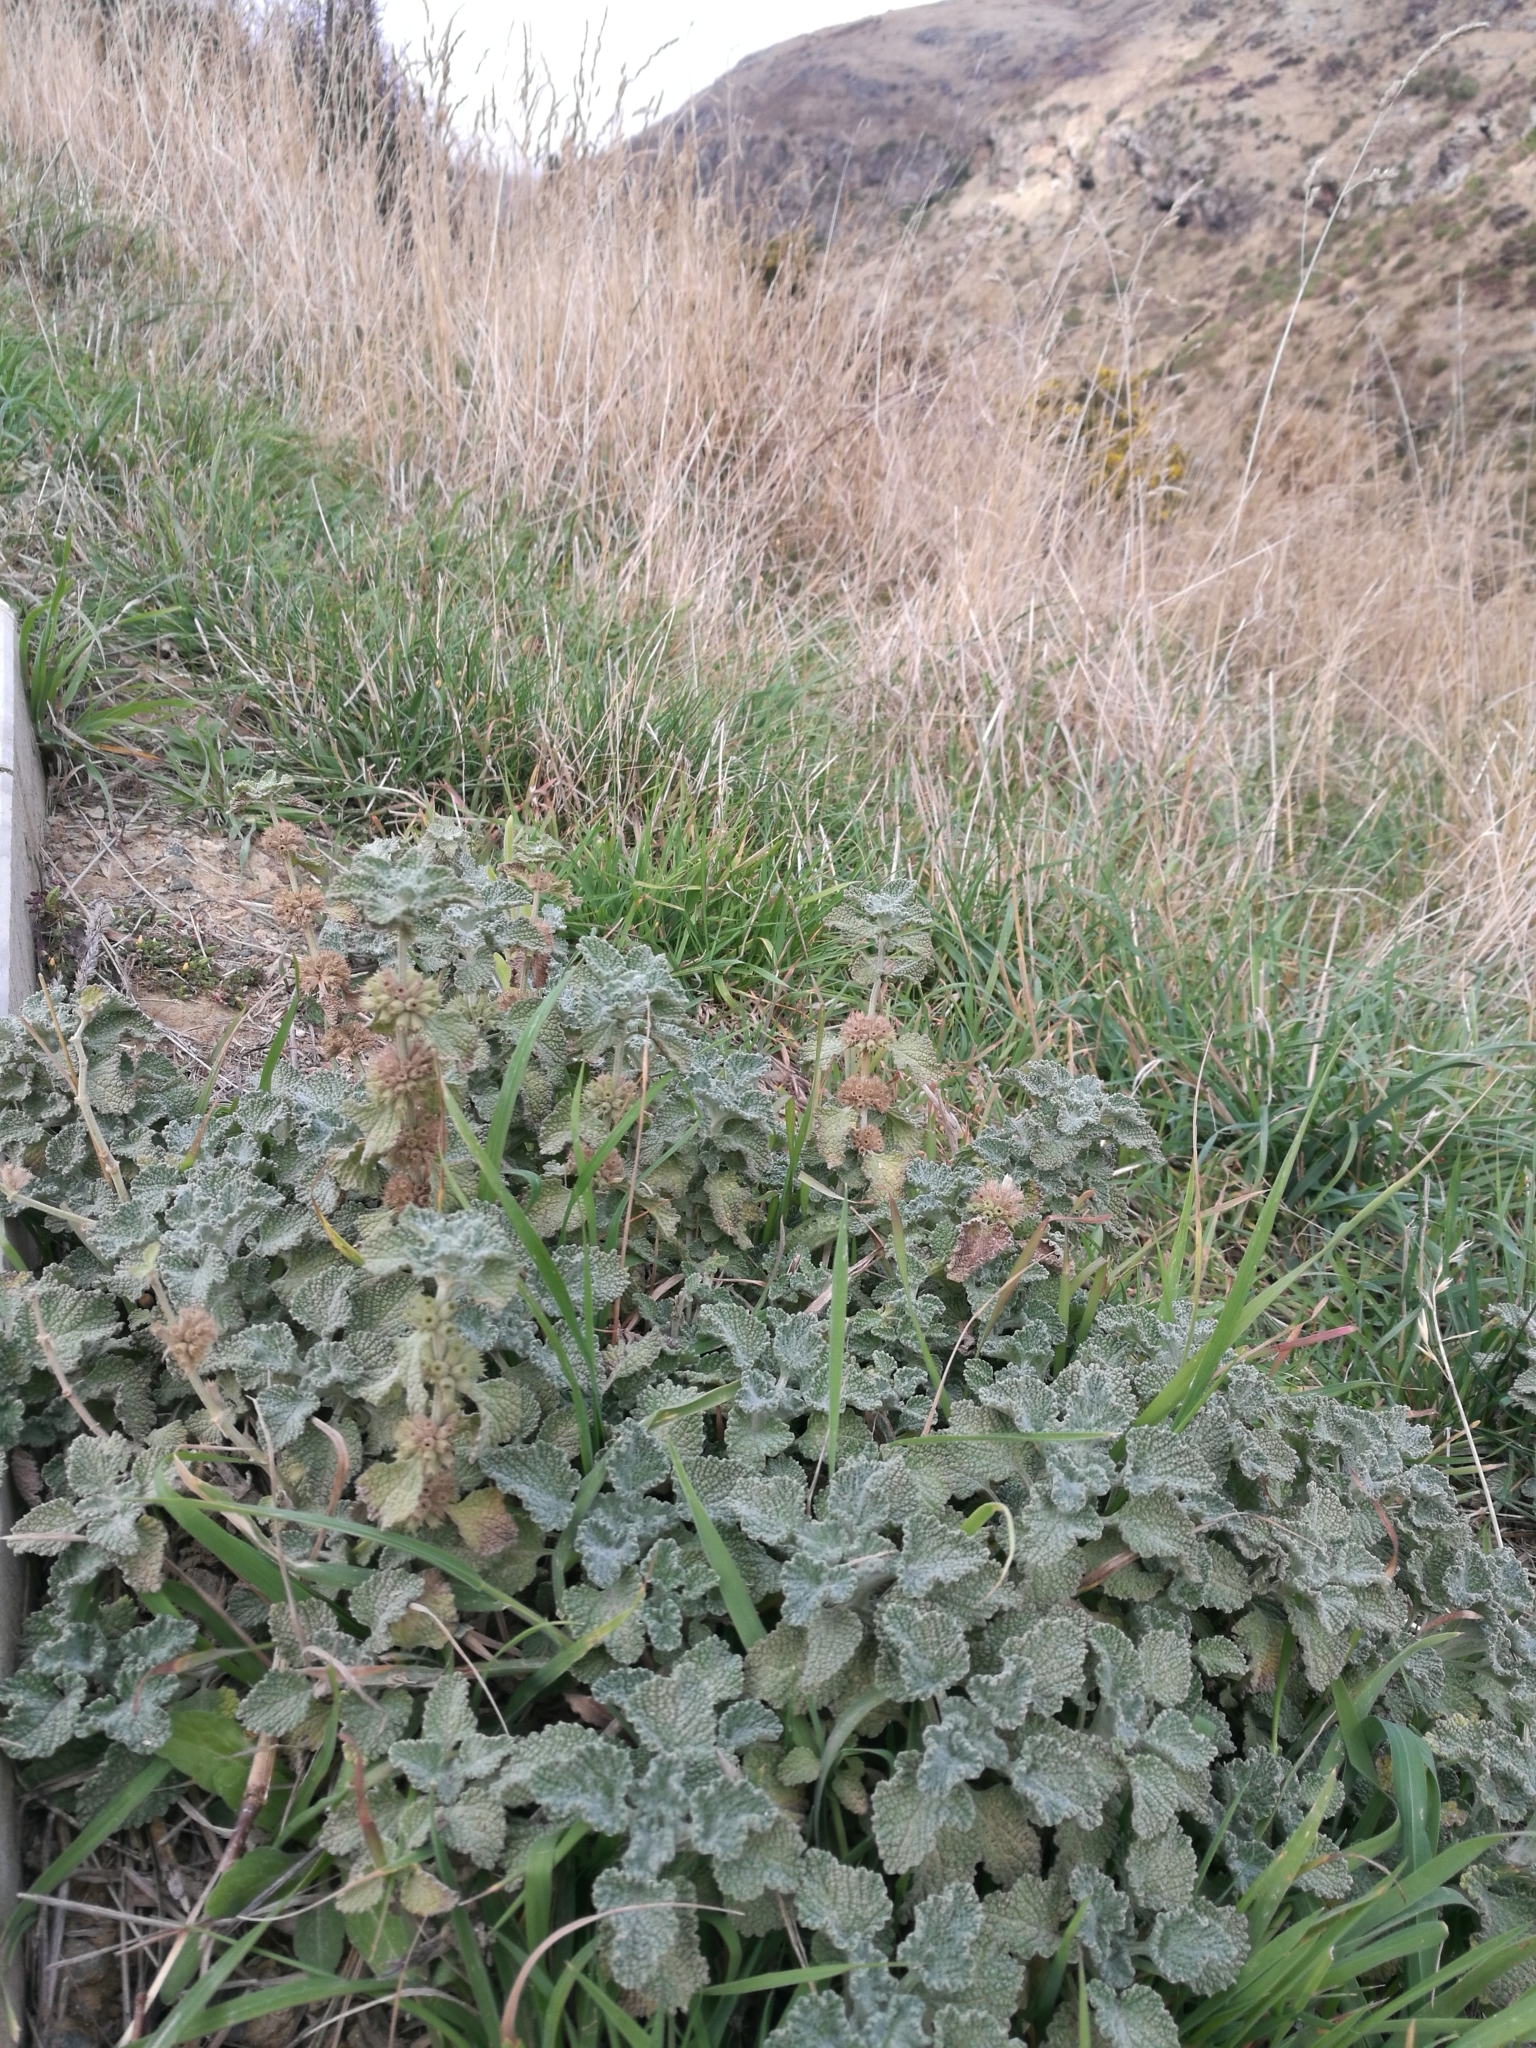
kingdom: Plantae
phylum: Tracheophyta
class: Magnoliopsida
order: Lamiales
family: Lamiaceae
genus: Marrubium
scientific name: Marrubium vulgare
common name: Horehound
